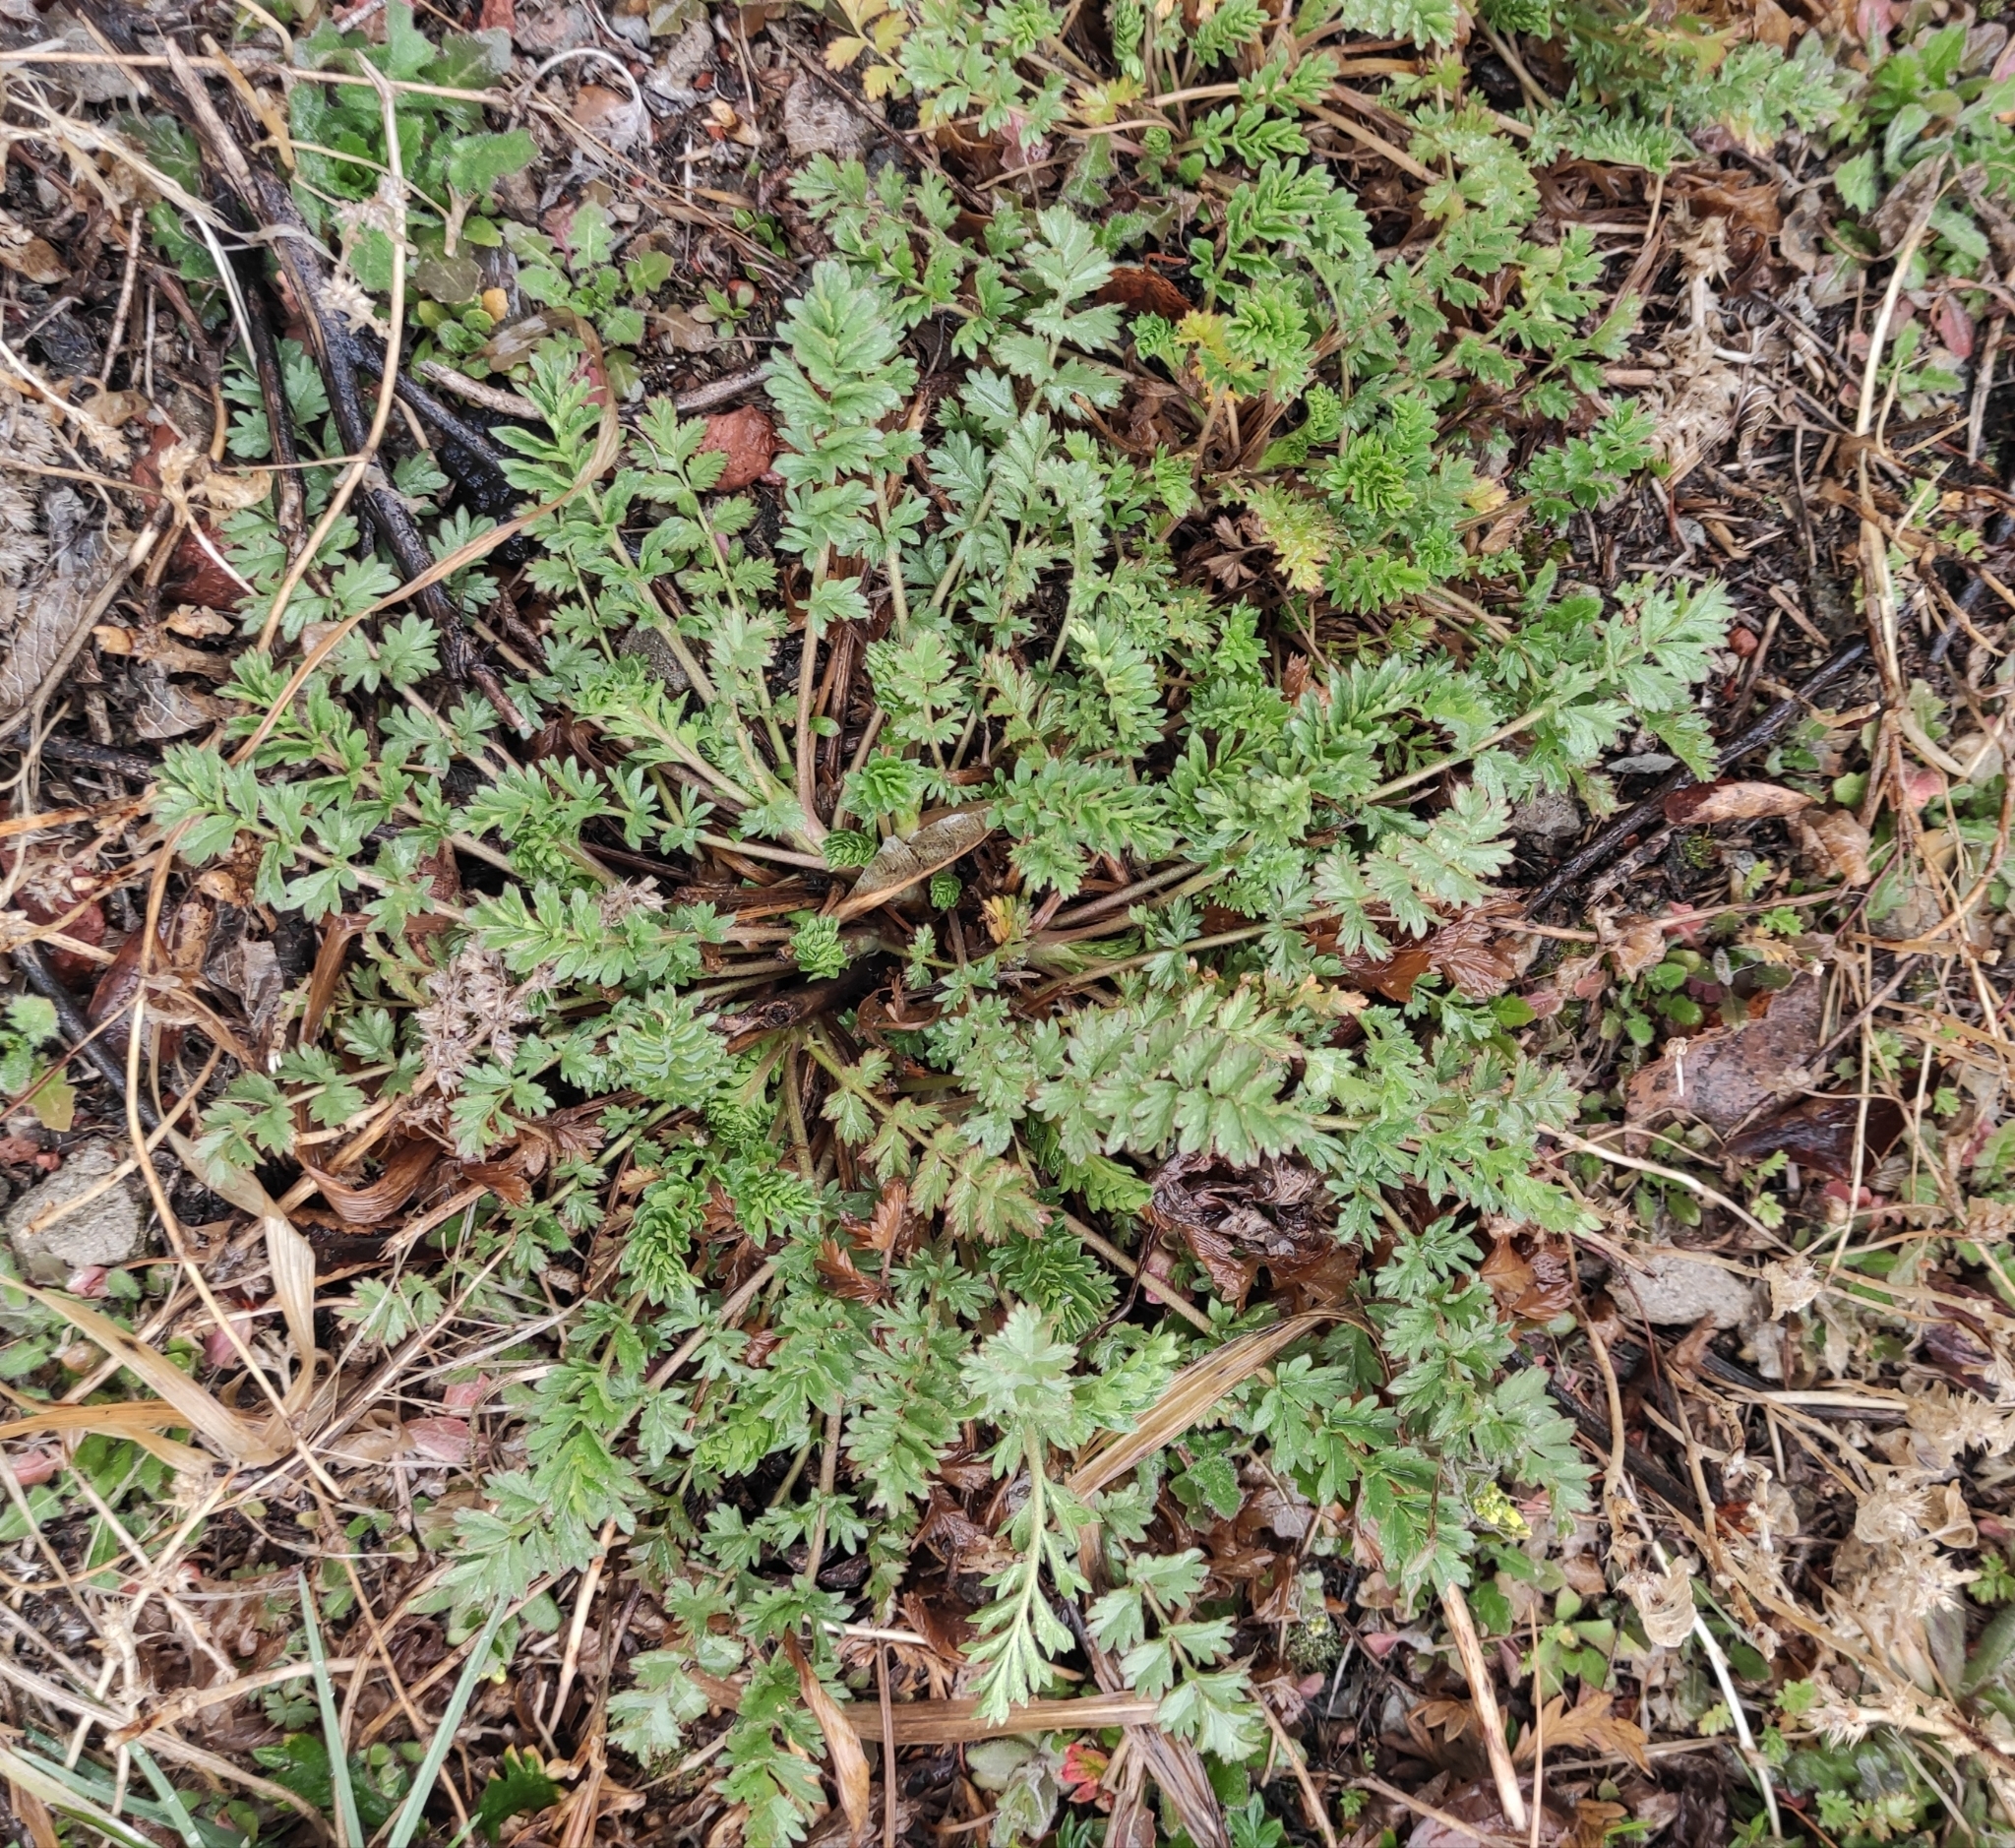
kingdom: Plantae
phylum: Tracheophyta
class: Magnoliopsida
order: Rosales
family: Rosaceae
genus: Potentilla
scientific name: Potentilla supina
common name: Prostrate cinquefoil
